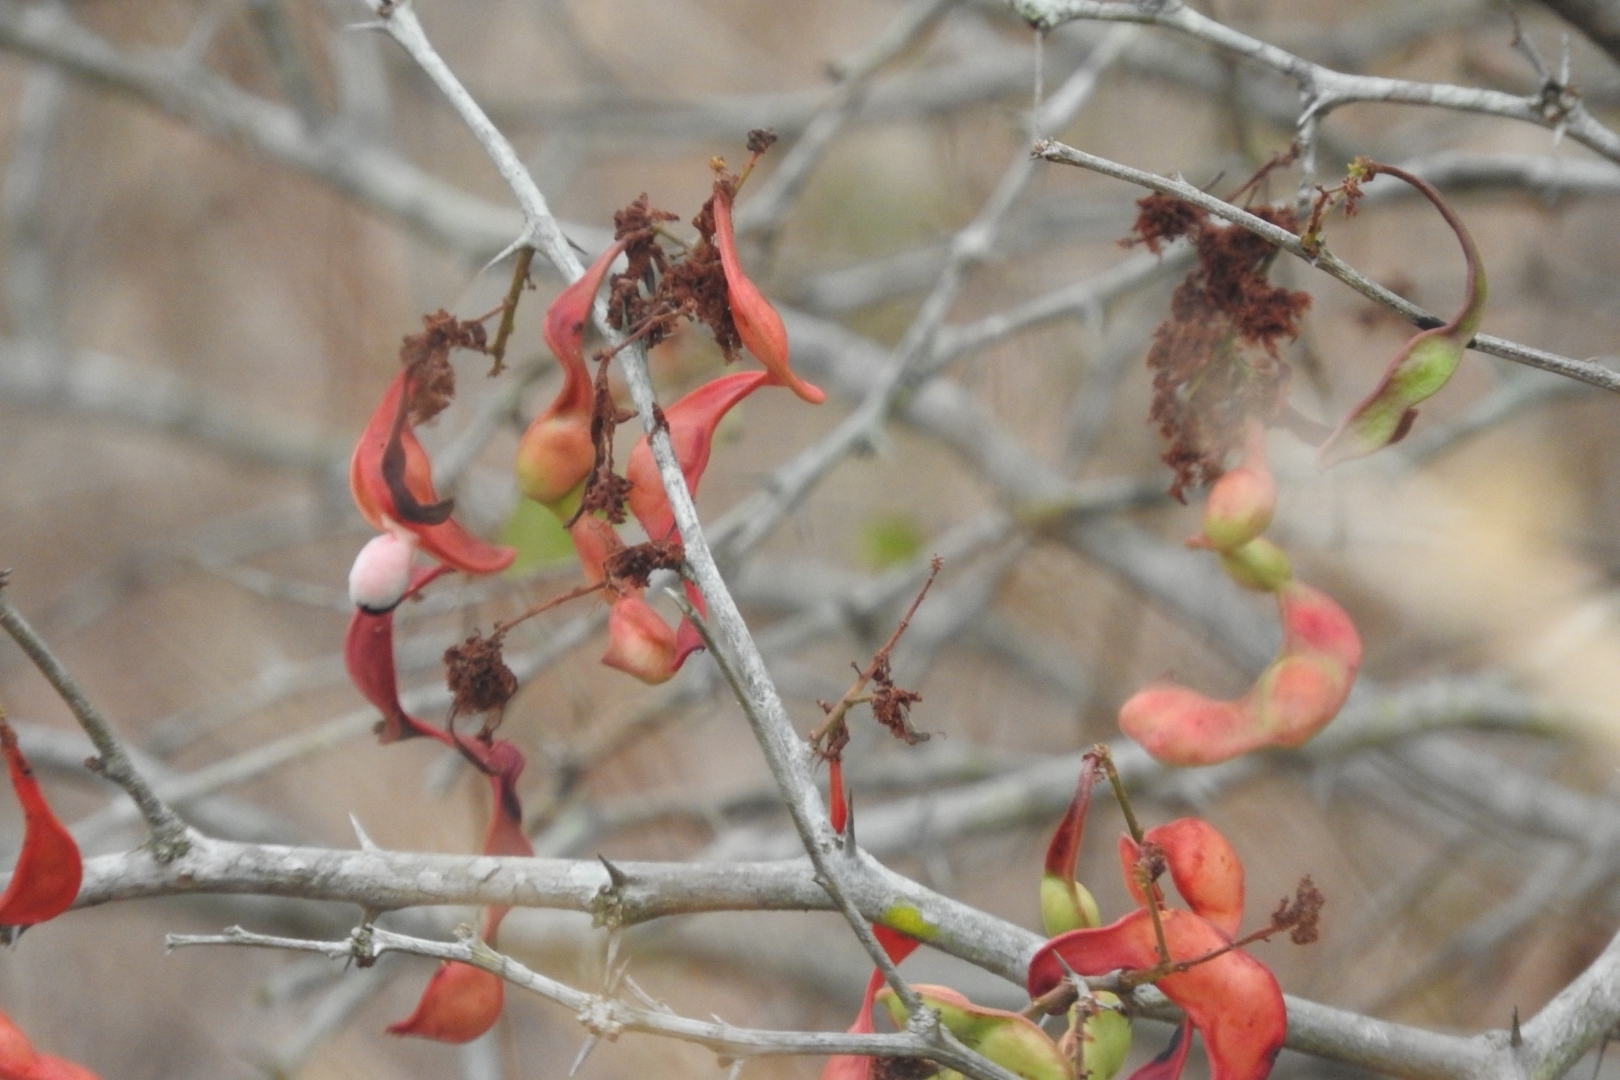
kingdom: Plantae
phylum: Tracheophyta
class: Magnoliopsida
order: Fabales
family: Fabaceae
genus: Pithecellobium
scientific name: Pithecellobium dulce
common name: Monkeypod
